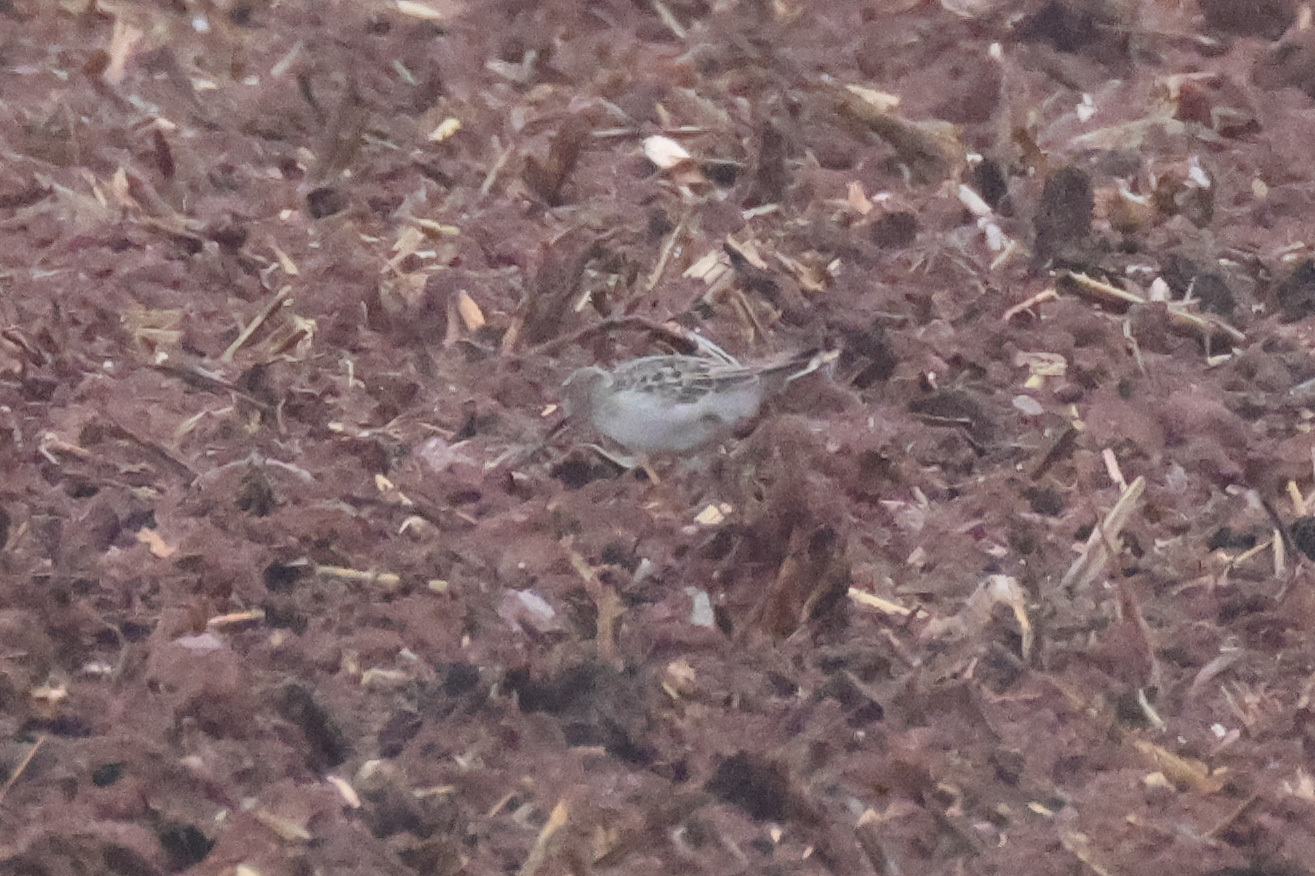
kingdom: Animalia
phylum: Chordata
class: Aves
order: Charadriiformes
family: Scolopacidae
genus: Calidris
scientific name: Calidris fuscicollis
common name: White-rumped sandpiper
